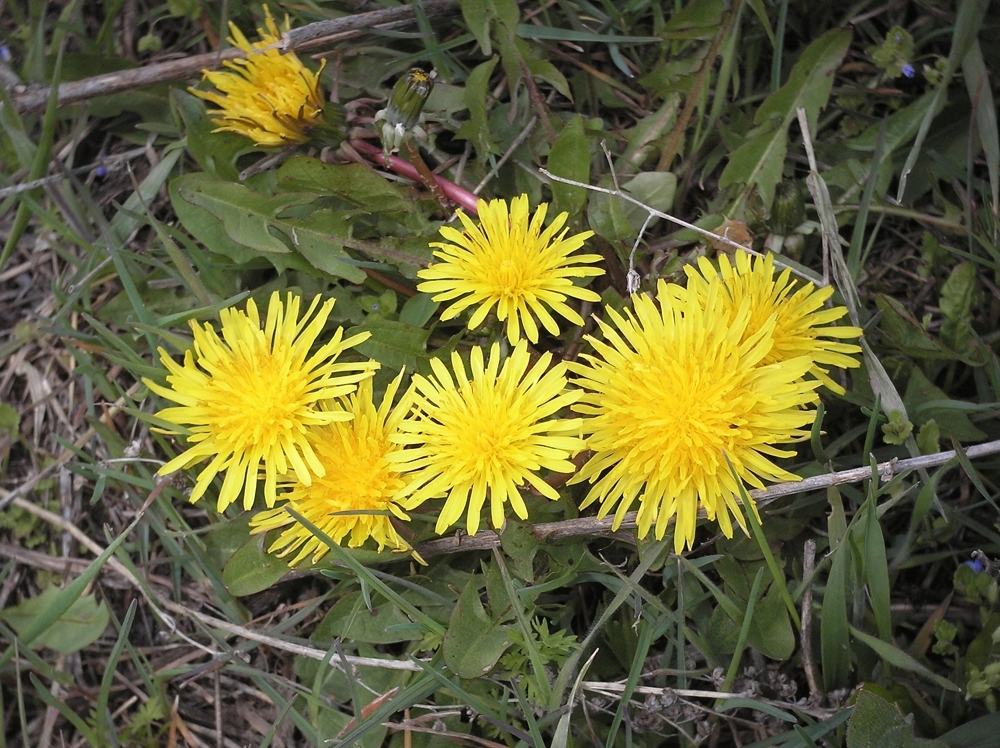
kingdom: Plantae
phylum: Tracheophyta
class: Magnoliopsida
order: Asterales
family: Asteraceae
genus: Taraxacum
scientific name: Taraxacum officinale
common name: Common dandelion
